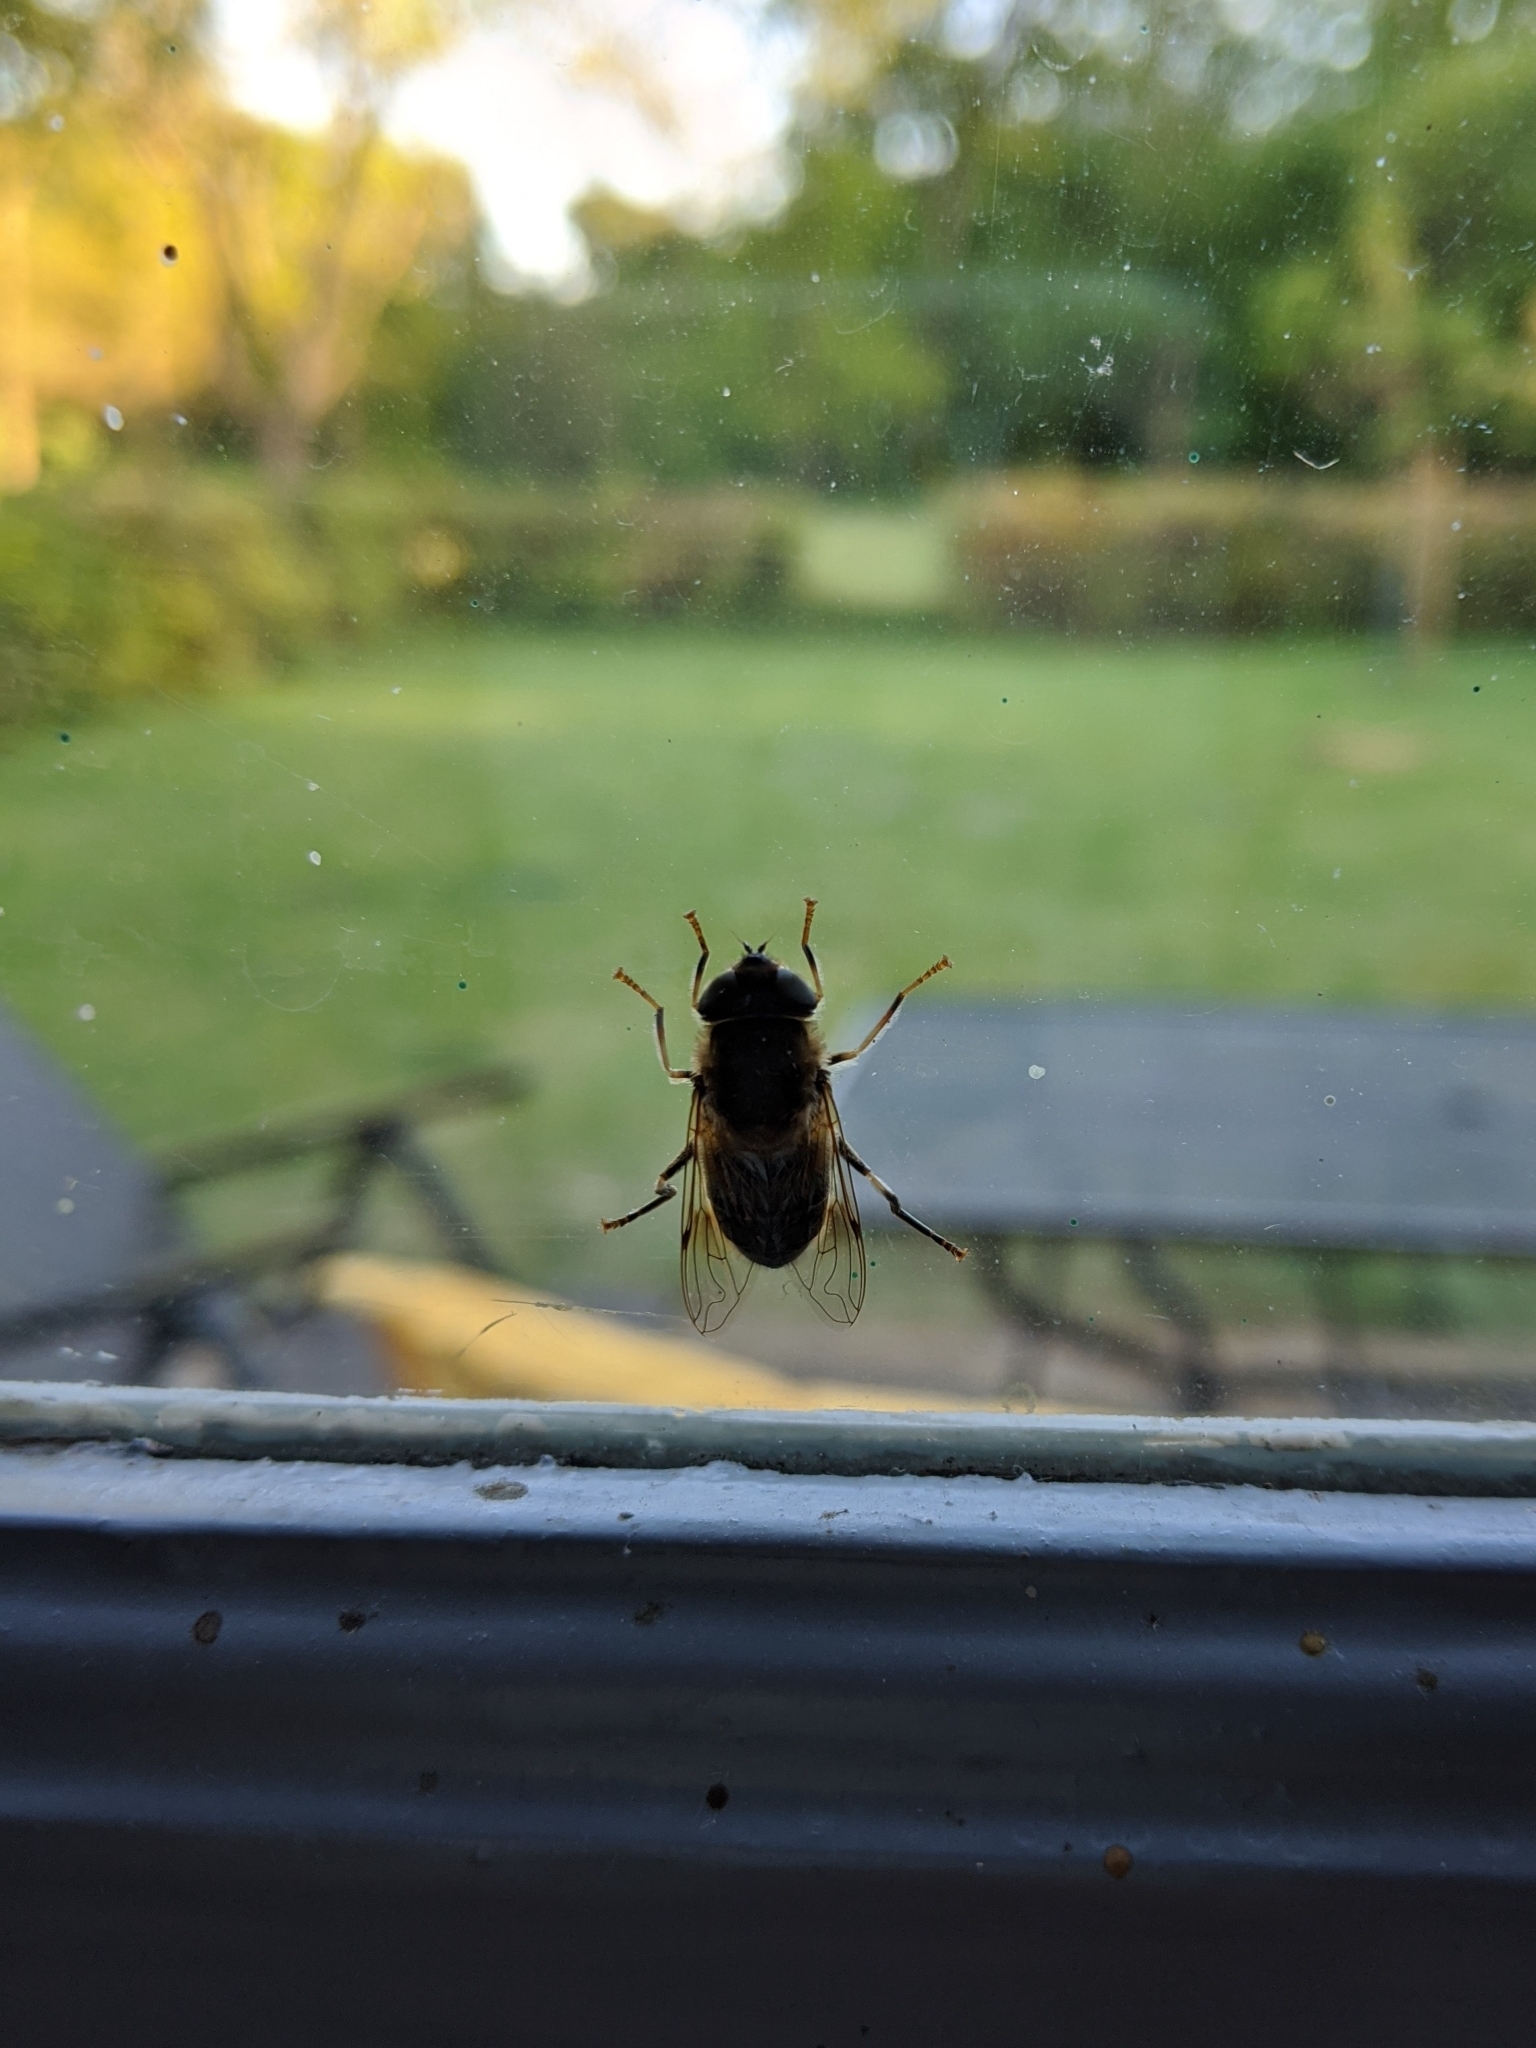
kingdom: Animalia
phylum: Arthropoda
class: Insecta
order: Diptera
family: Syrphidae
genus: Eristalis
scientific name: Eristalis pertinax
